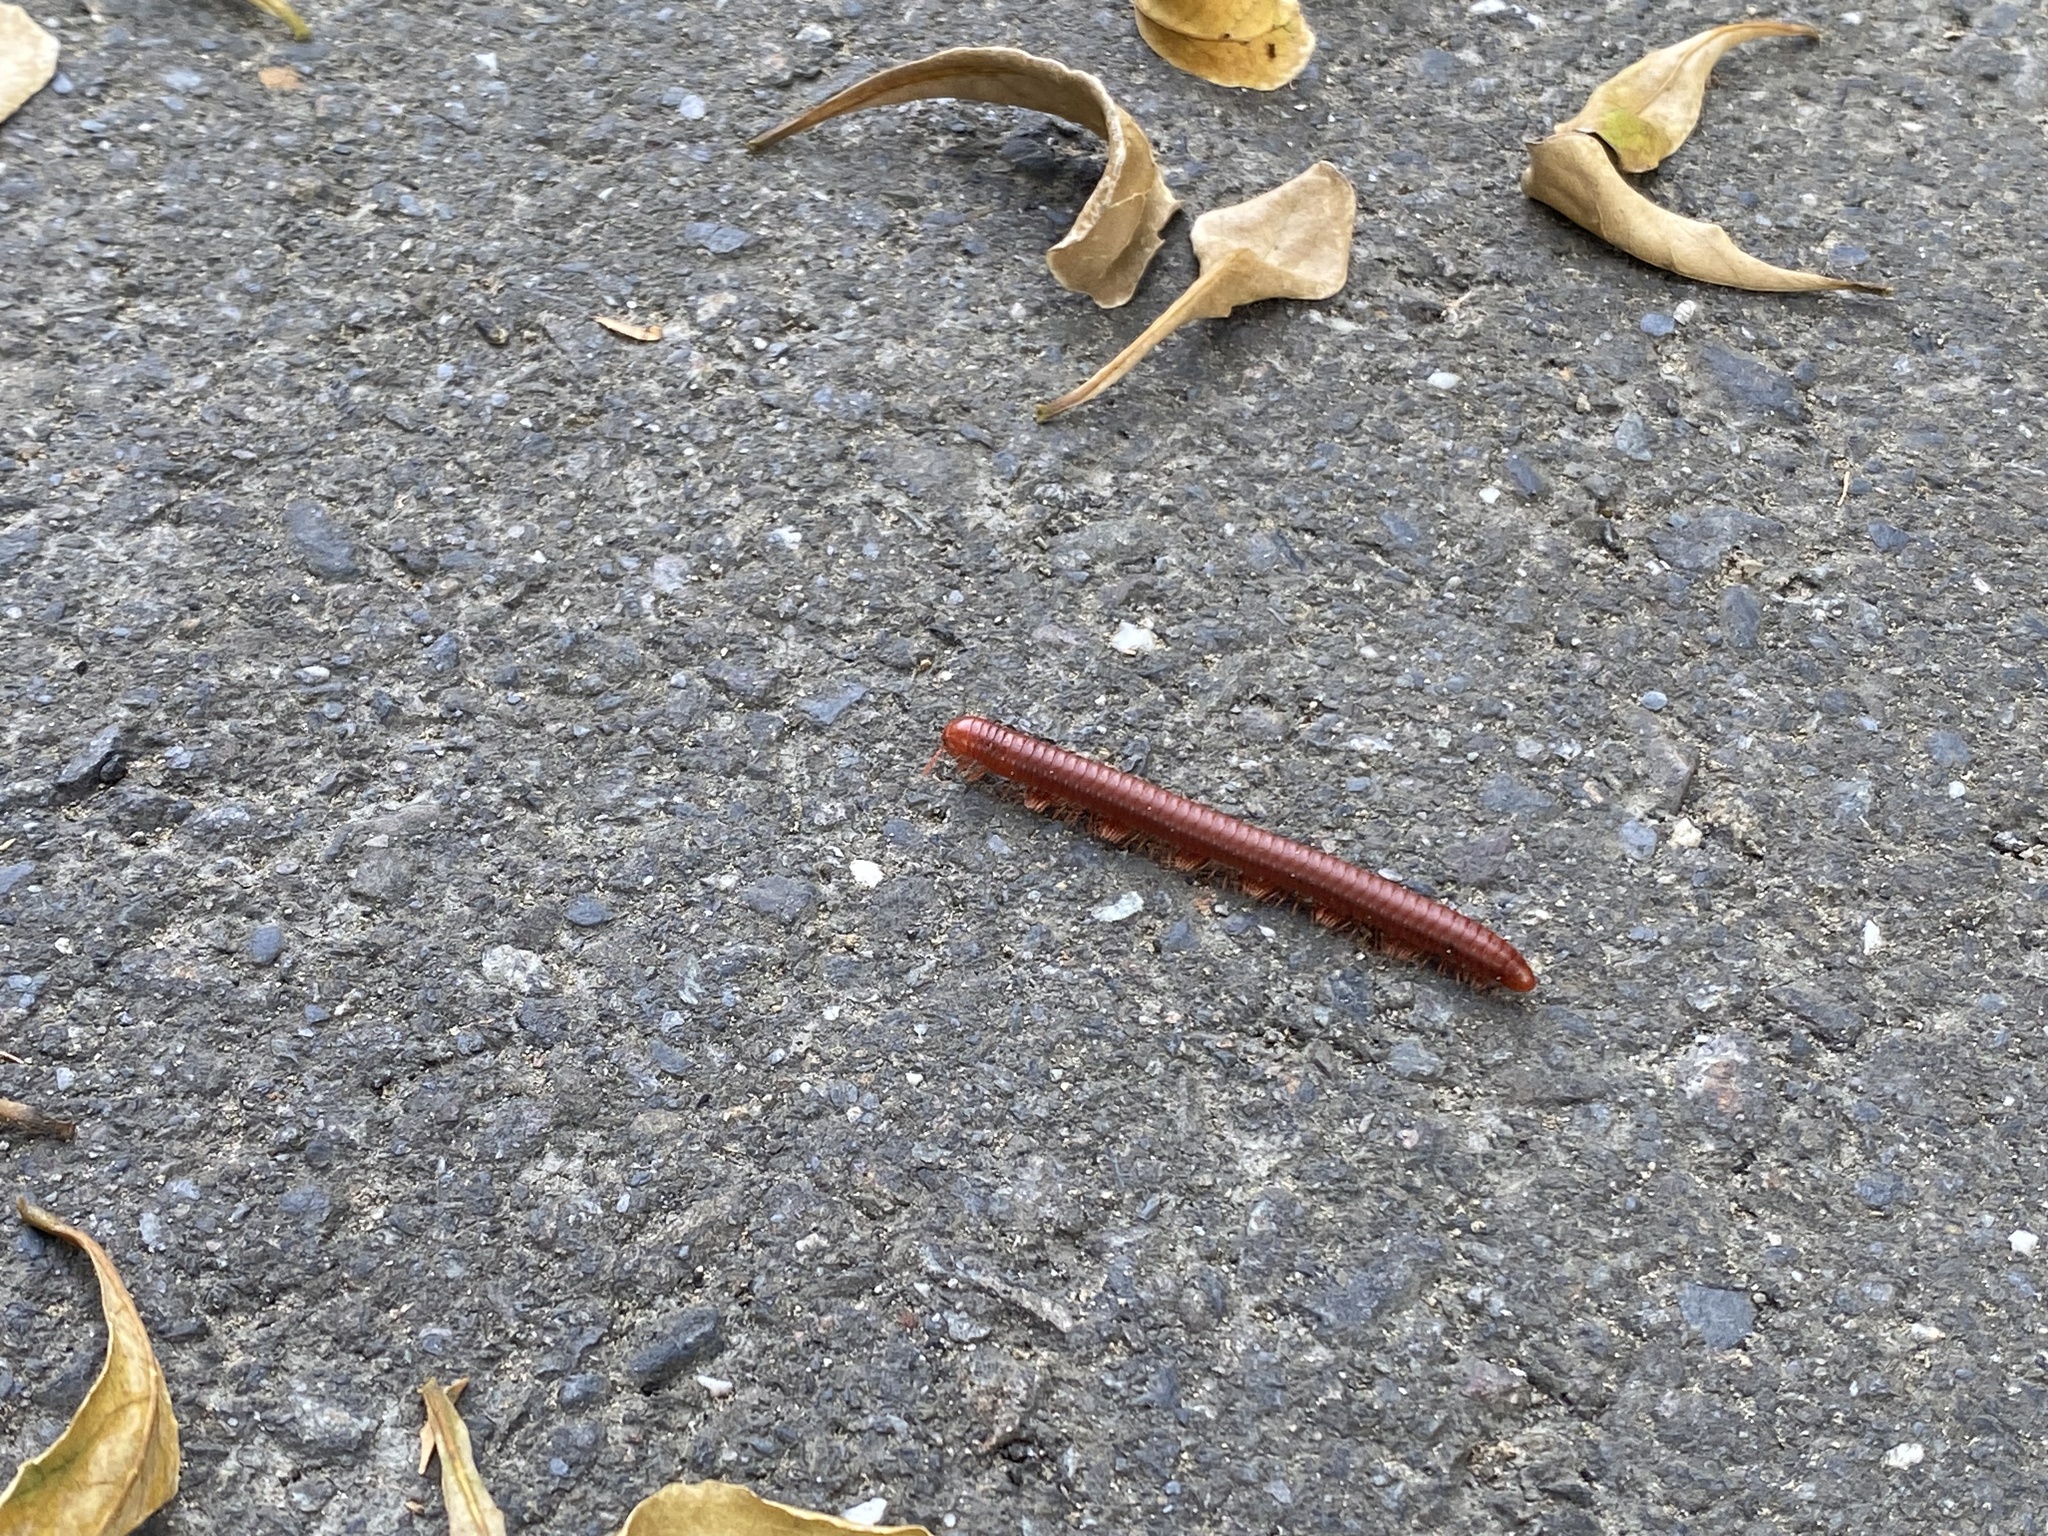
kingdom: Animalia
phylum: Arthropoda
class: Diplopoda
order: Spirobolida
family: Pachybolidae
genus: Trigoniulus
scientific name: Trigoniulus corallinus
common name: Millipede
